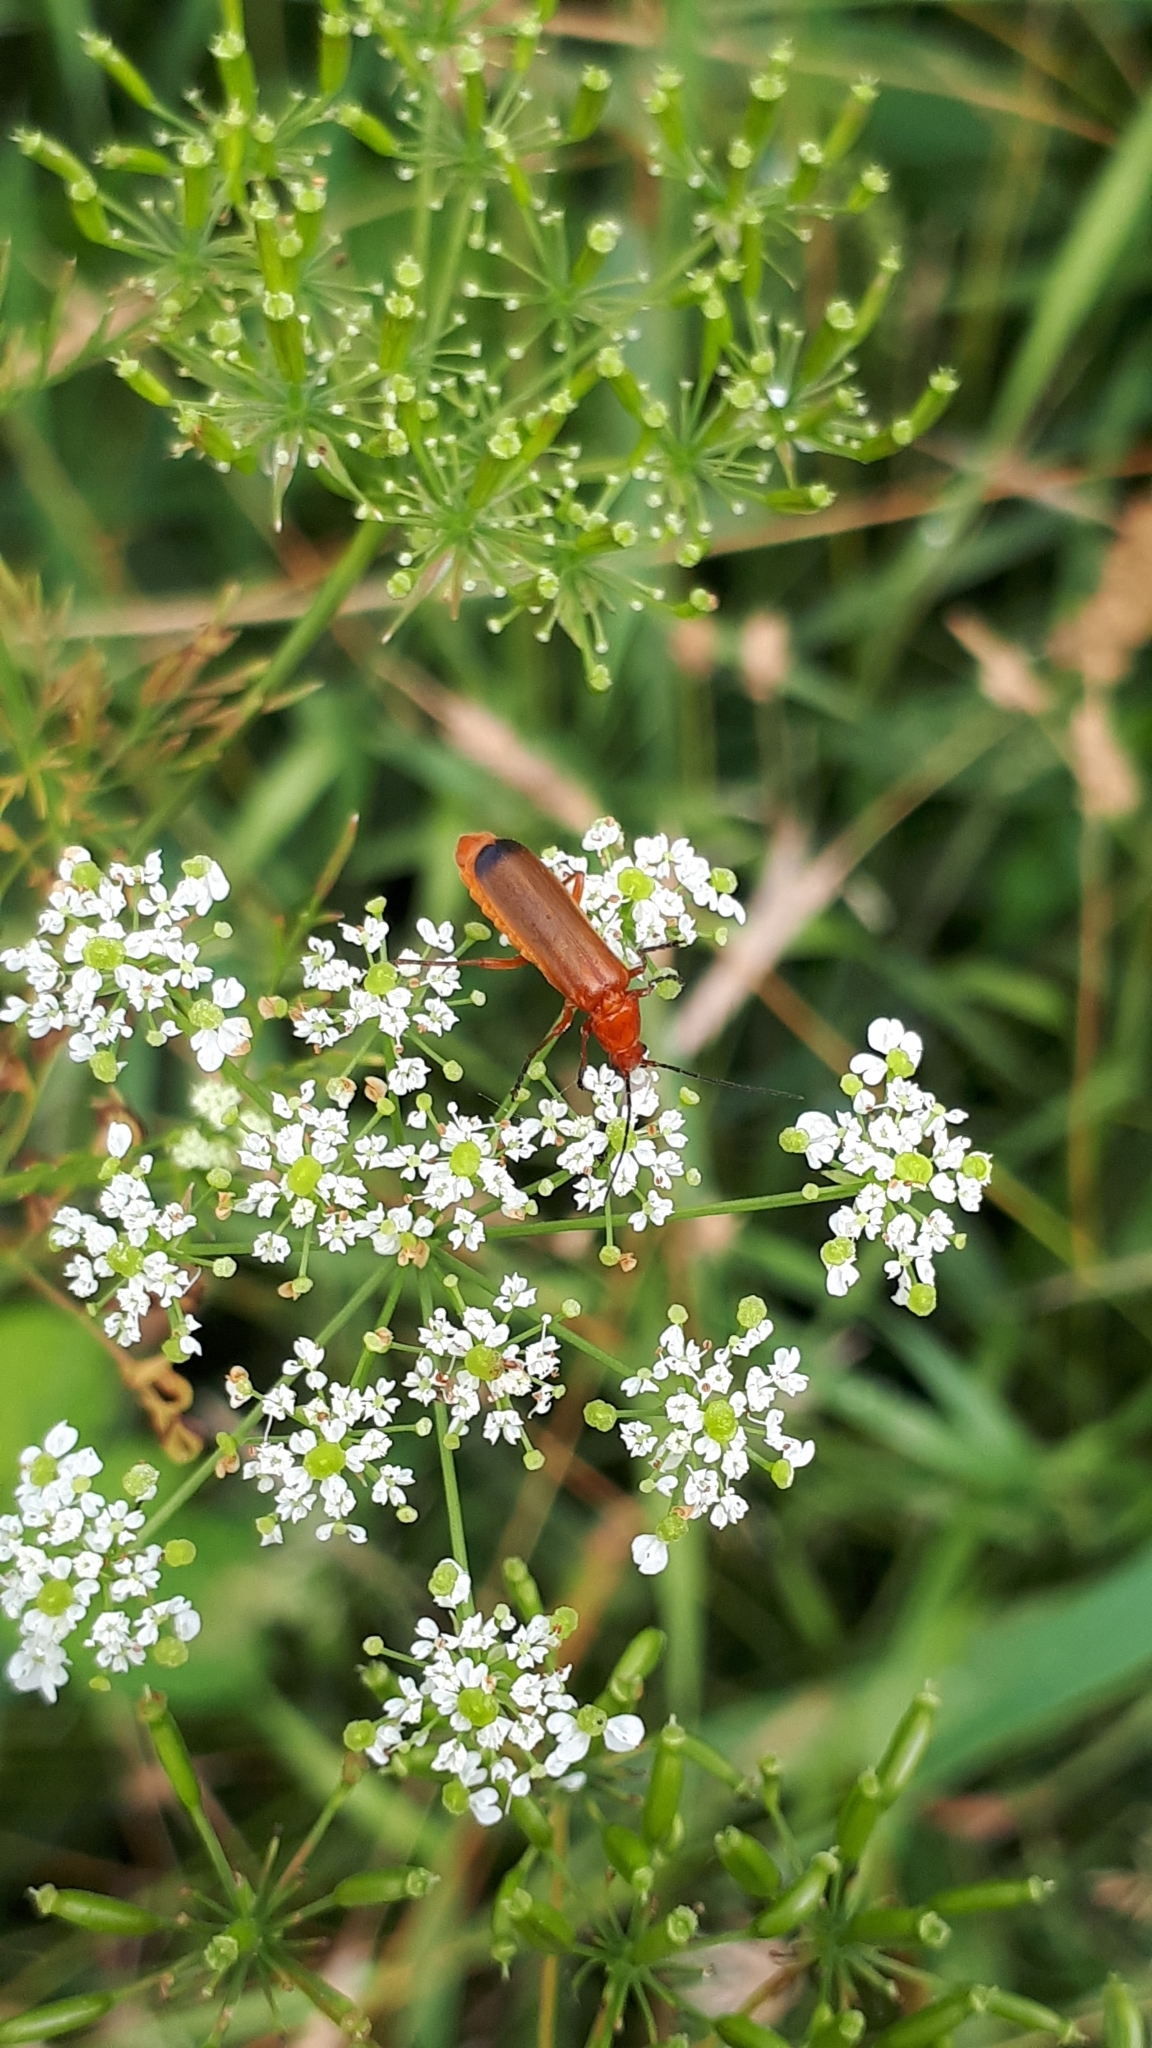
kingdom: Animalia
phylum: Arthropoda
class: Insecta
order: Coleoptera
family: Cantharidae
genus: Rhagonycha
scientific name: Rhagonycha fulva
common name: Common red soldier beetle
